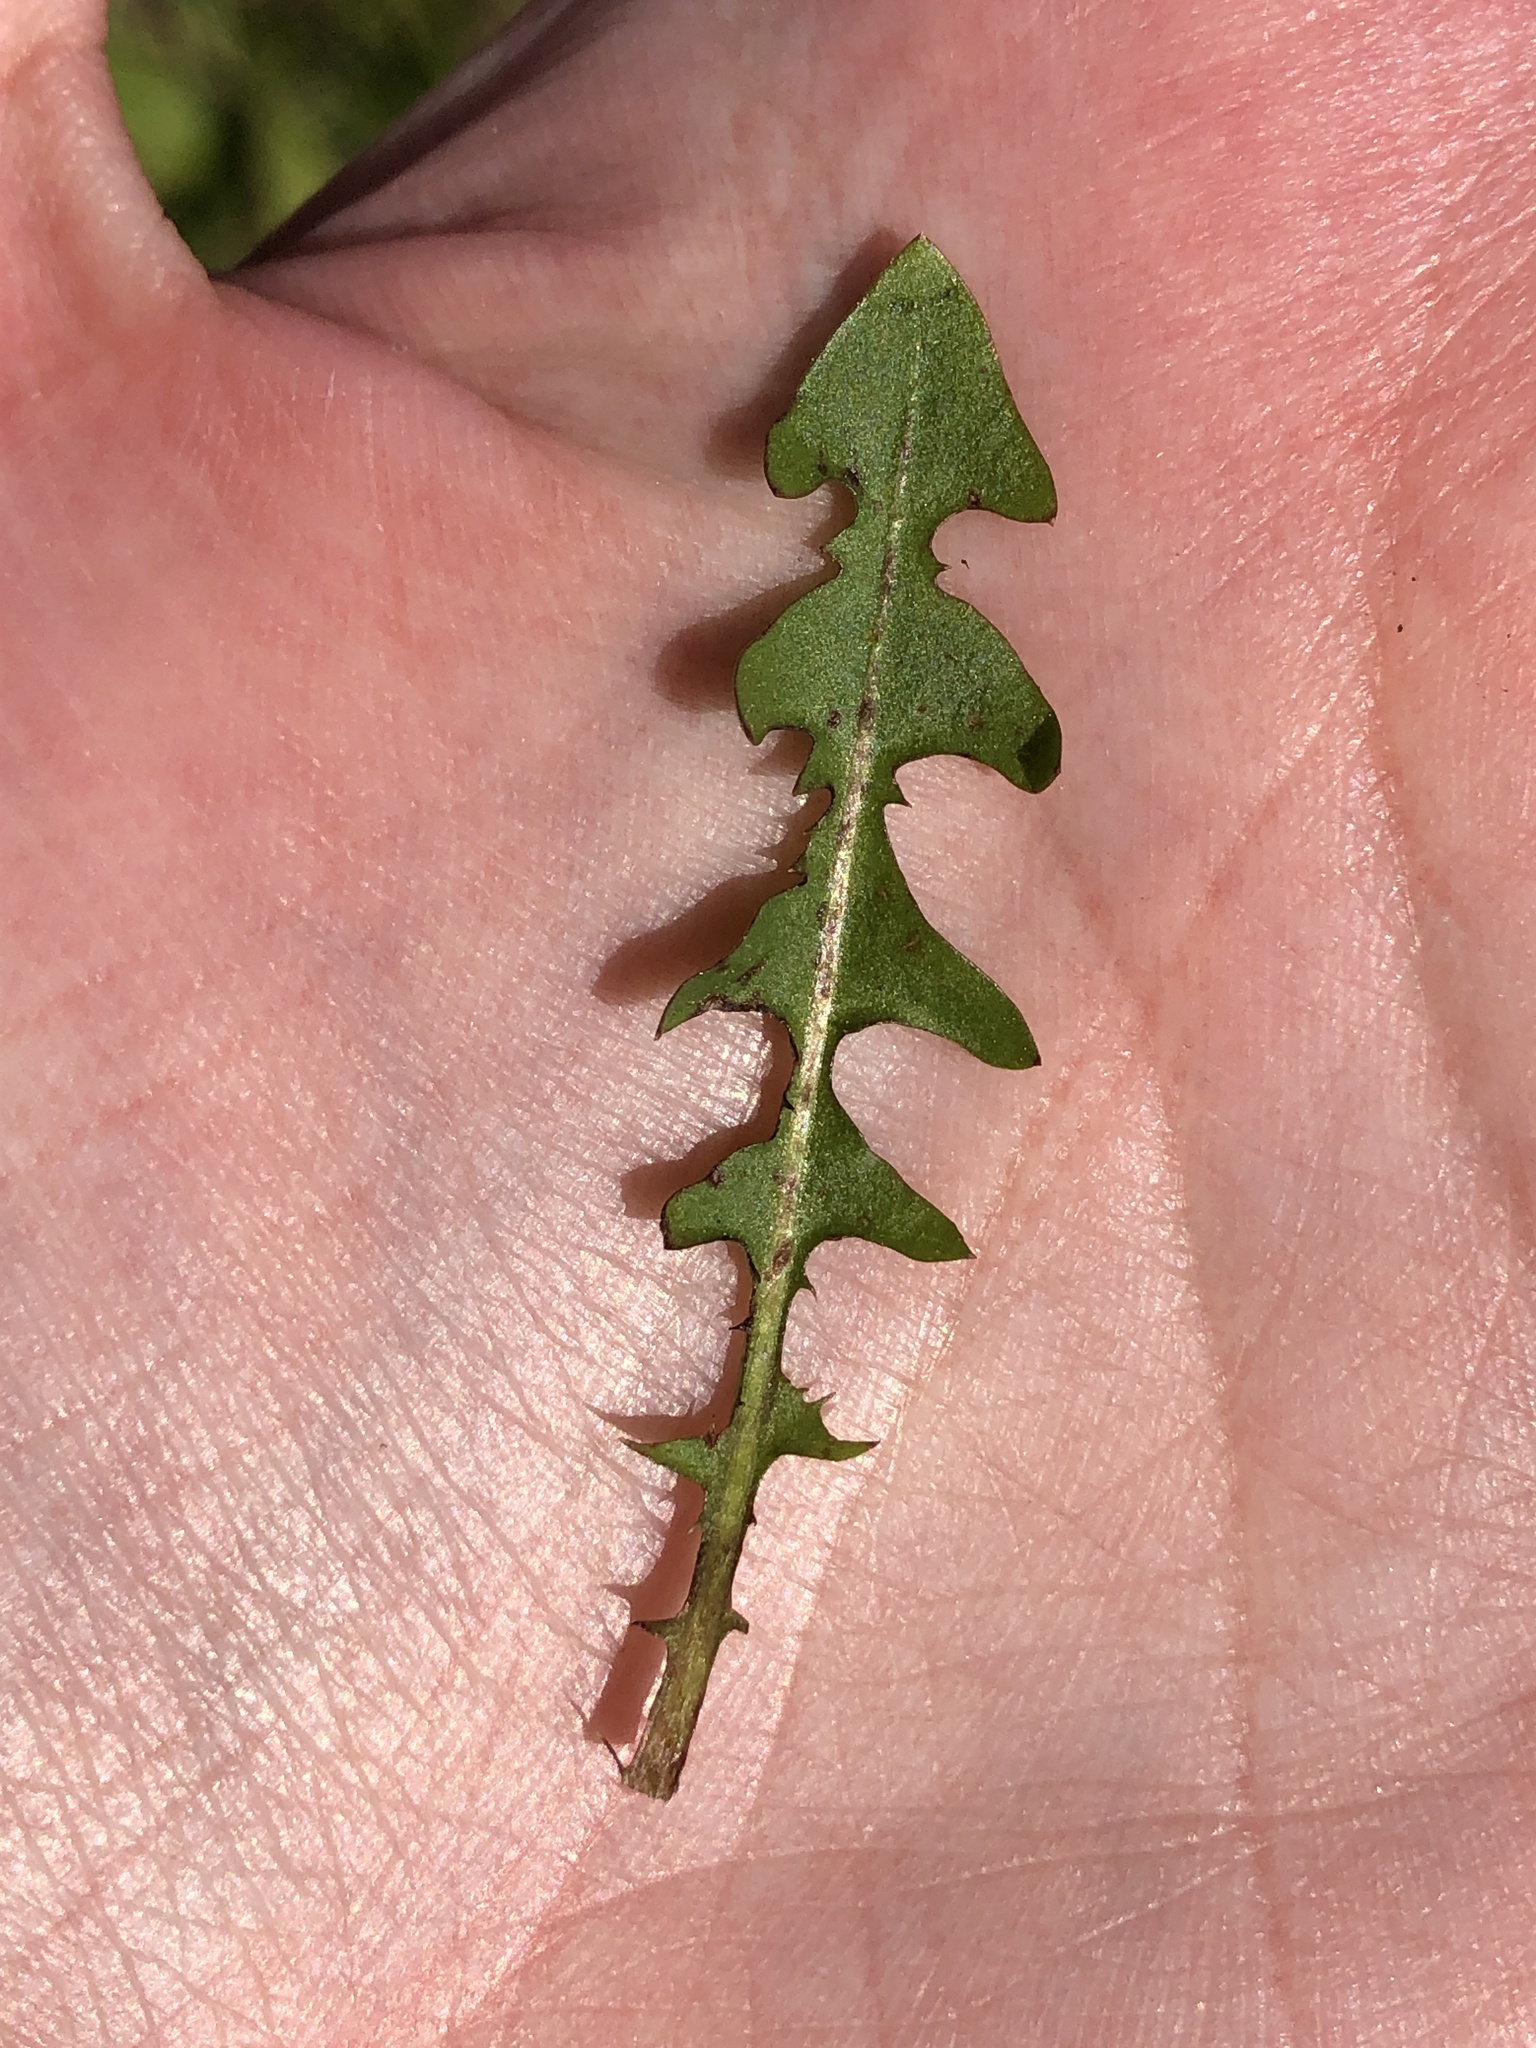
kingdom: Plantae
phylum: Tracheophyta
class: Magnoliopsida
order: Asterales
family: Asteraceae
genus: Taraxacum
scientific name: Taraxacum officinale
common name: Common dandelion
